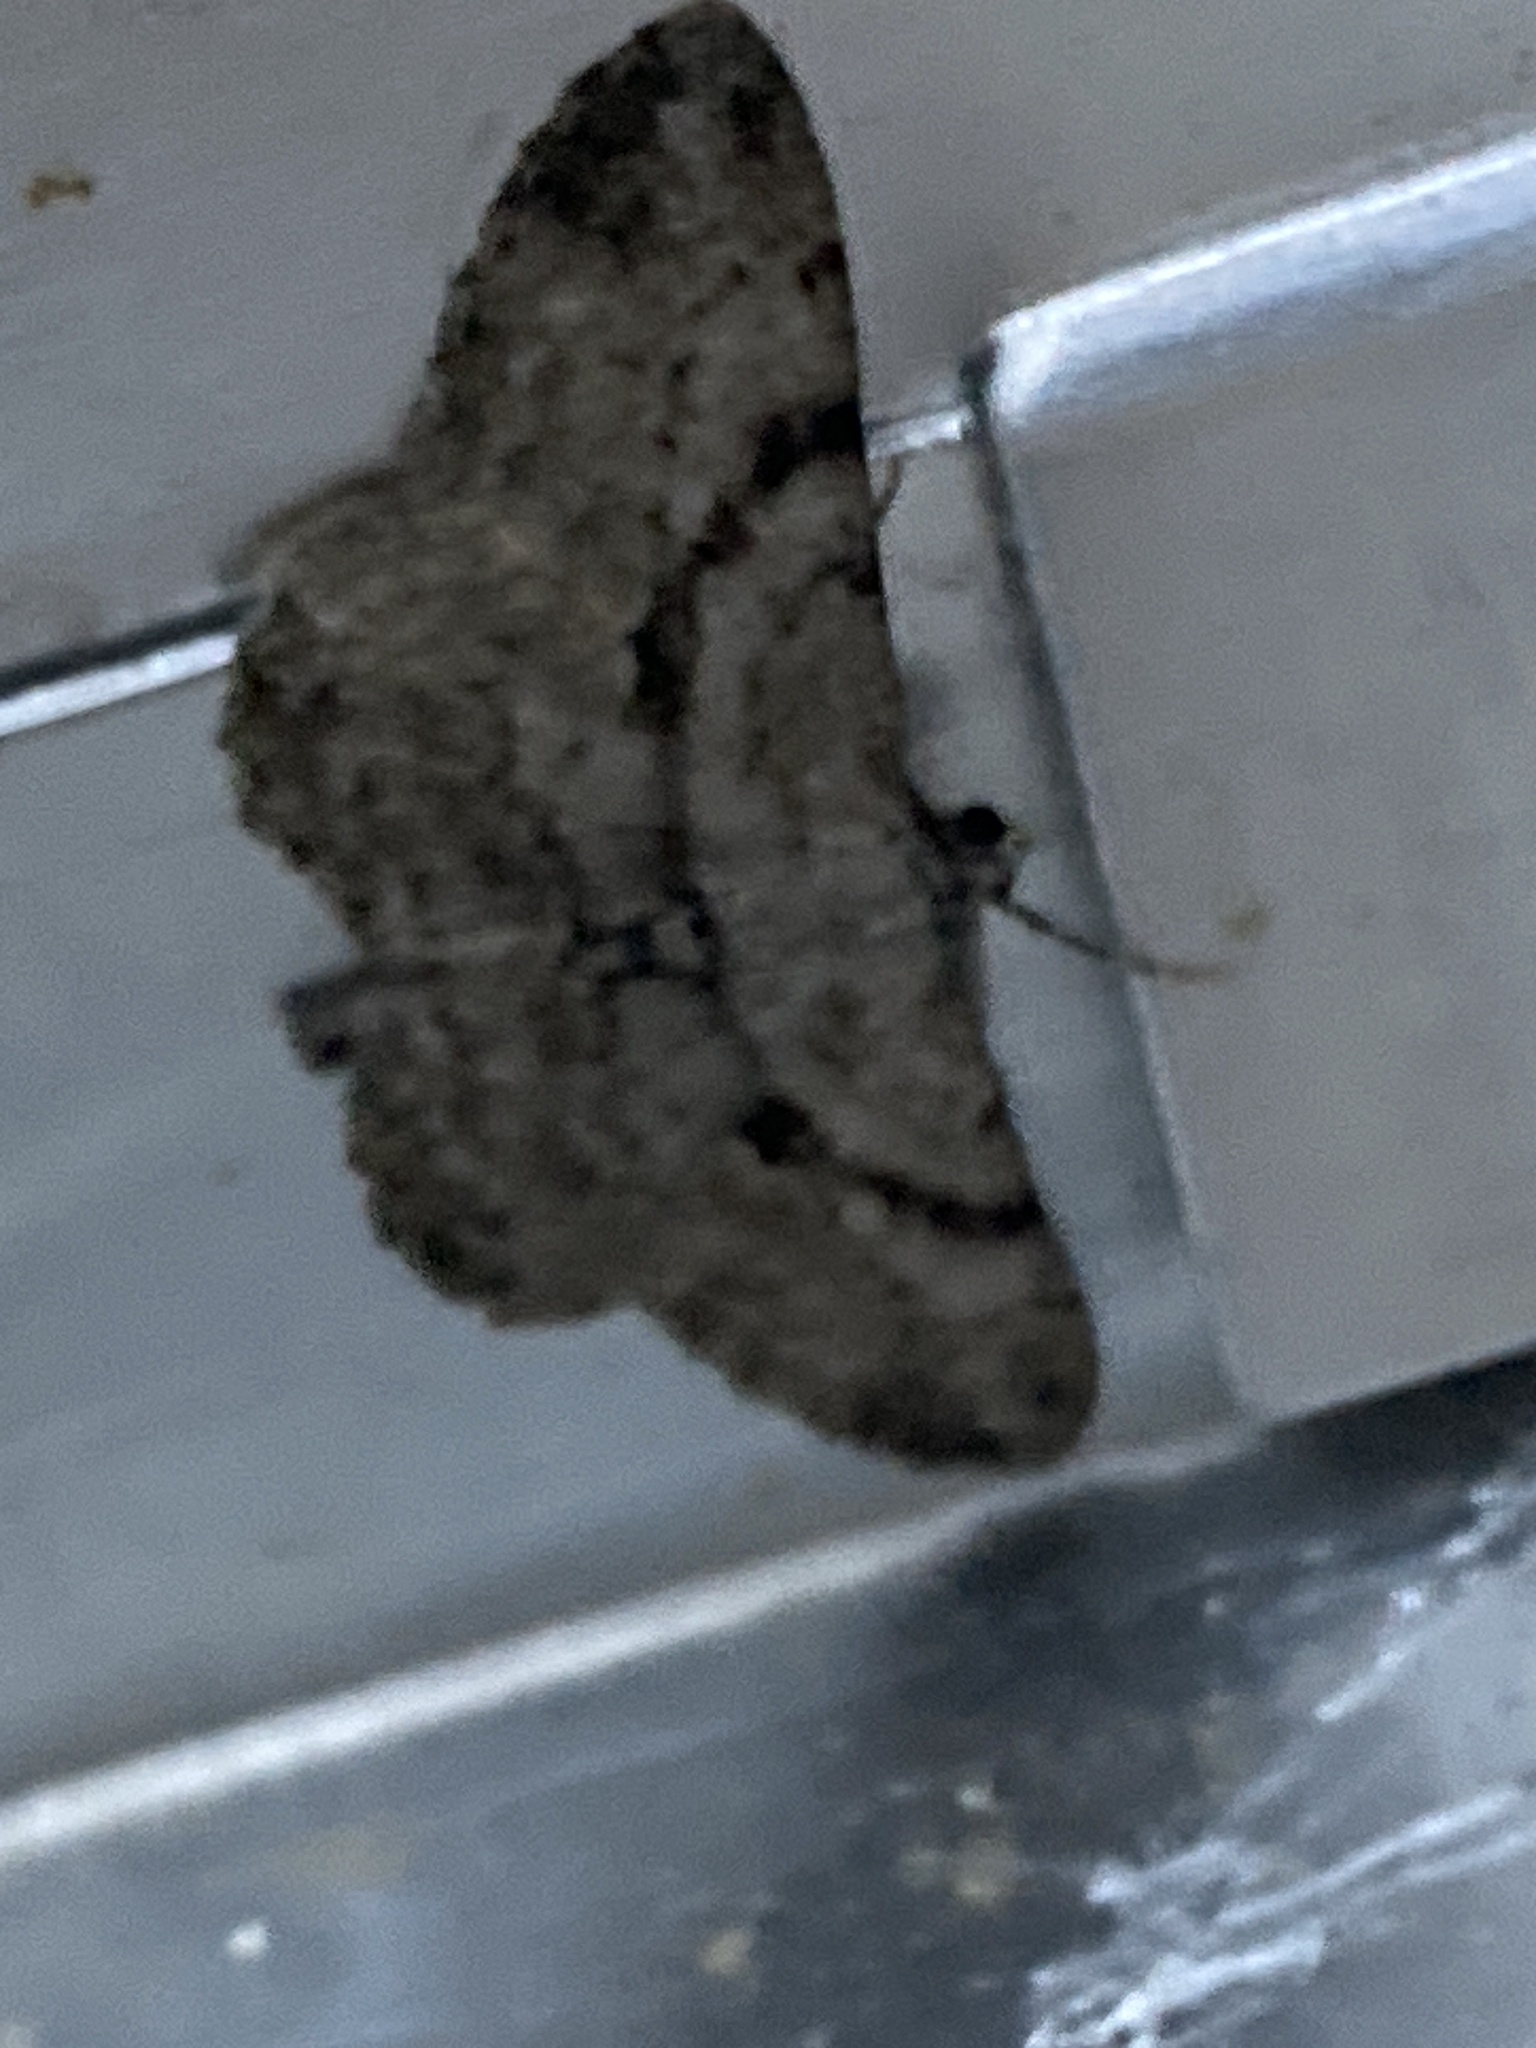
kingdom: Animalia
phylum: Arthropoda
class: Insecta
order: Lepidoptera
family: Geometridae
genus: Peribatodes
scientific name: Peribatodes rhomboidaria
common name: Willow beauty
